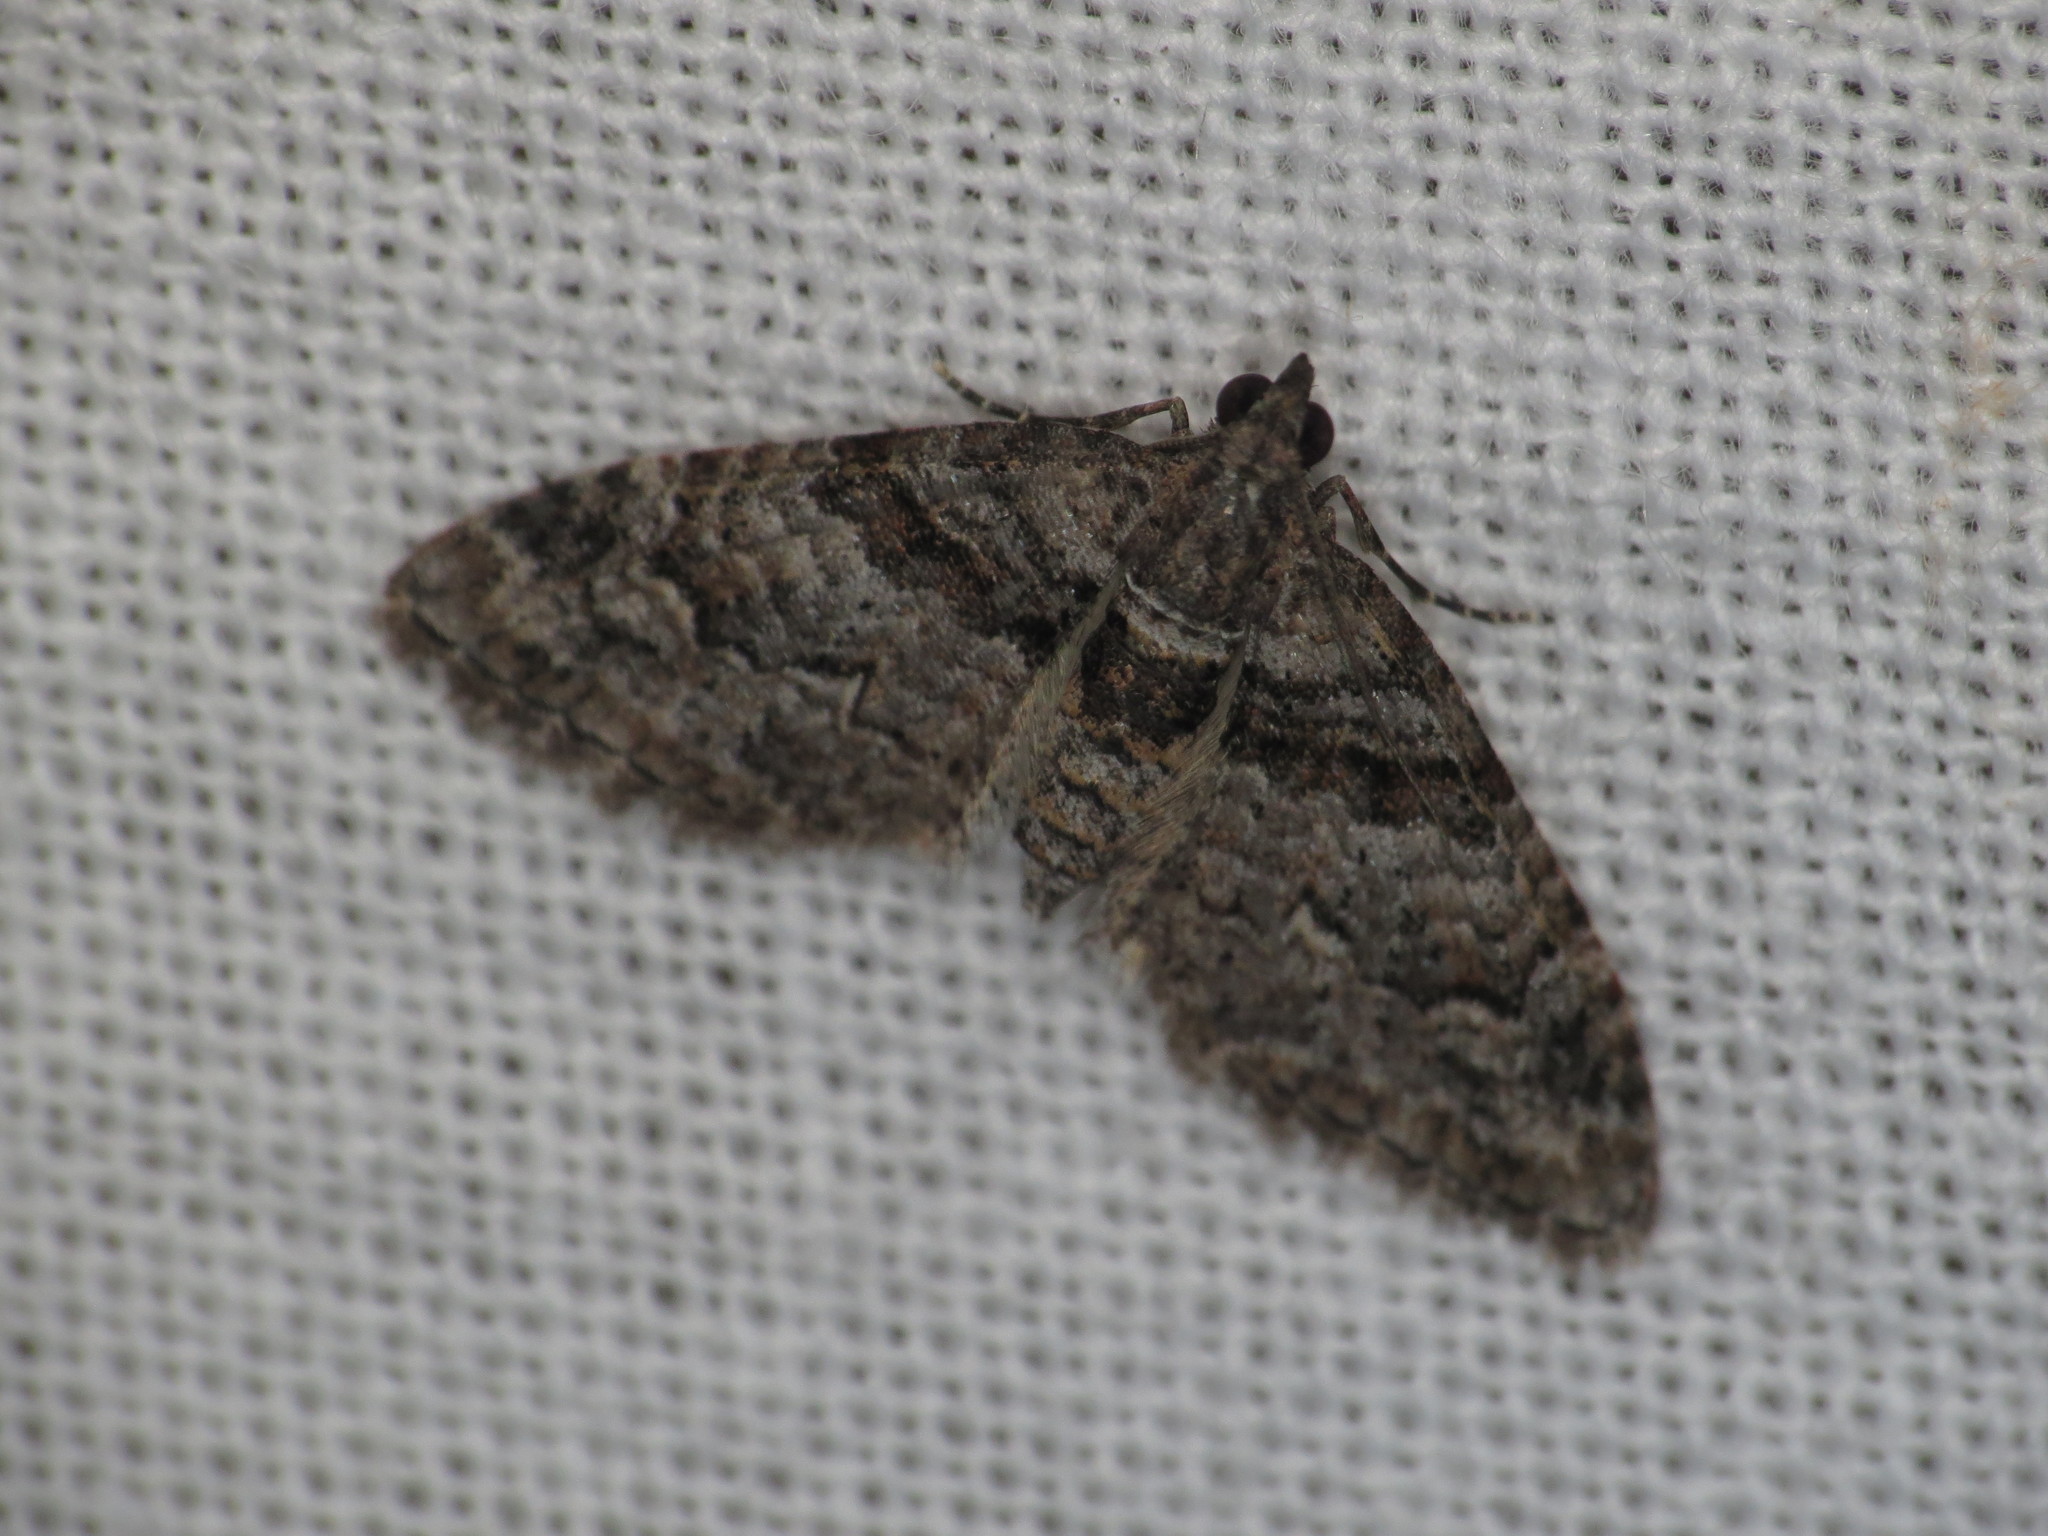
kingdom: Animalia
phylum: Arthropoda
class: Insecta
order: Lepidoptera
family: Geometridae
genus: Phrissogonus
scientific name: Phrissogonus laticostata
